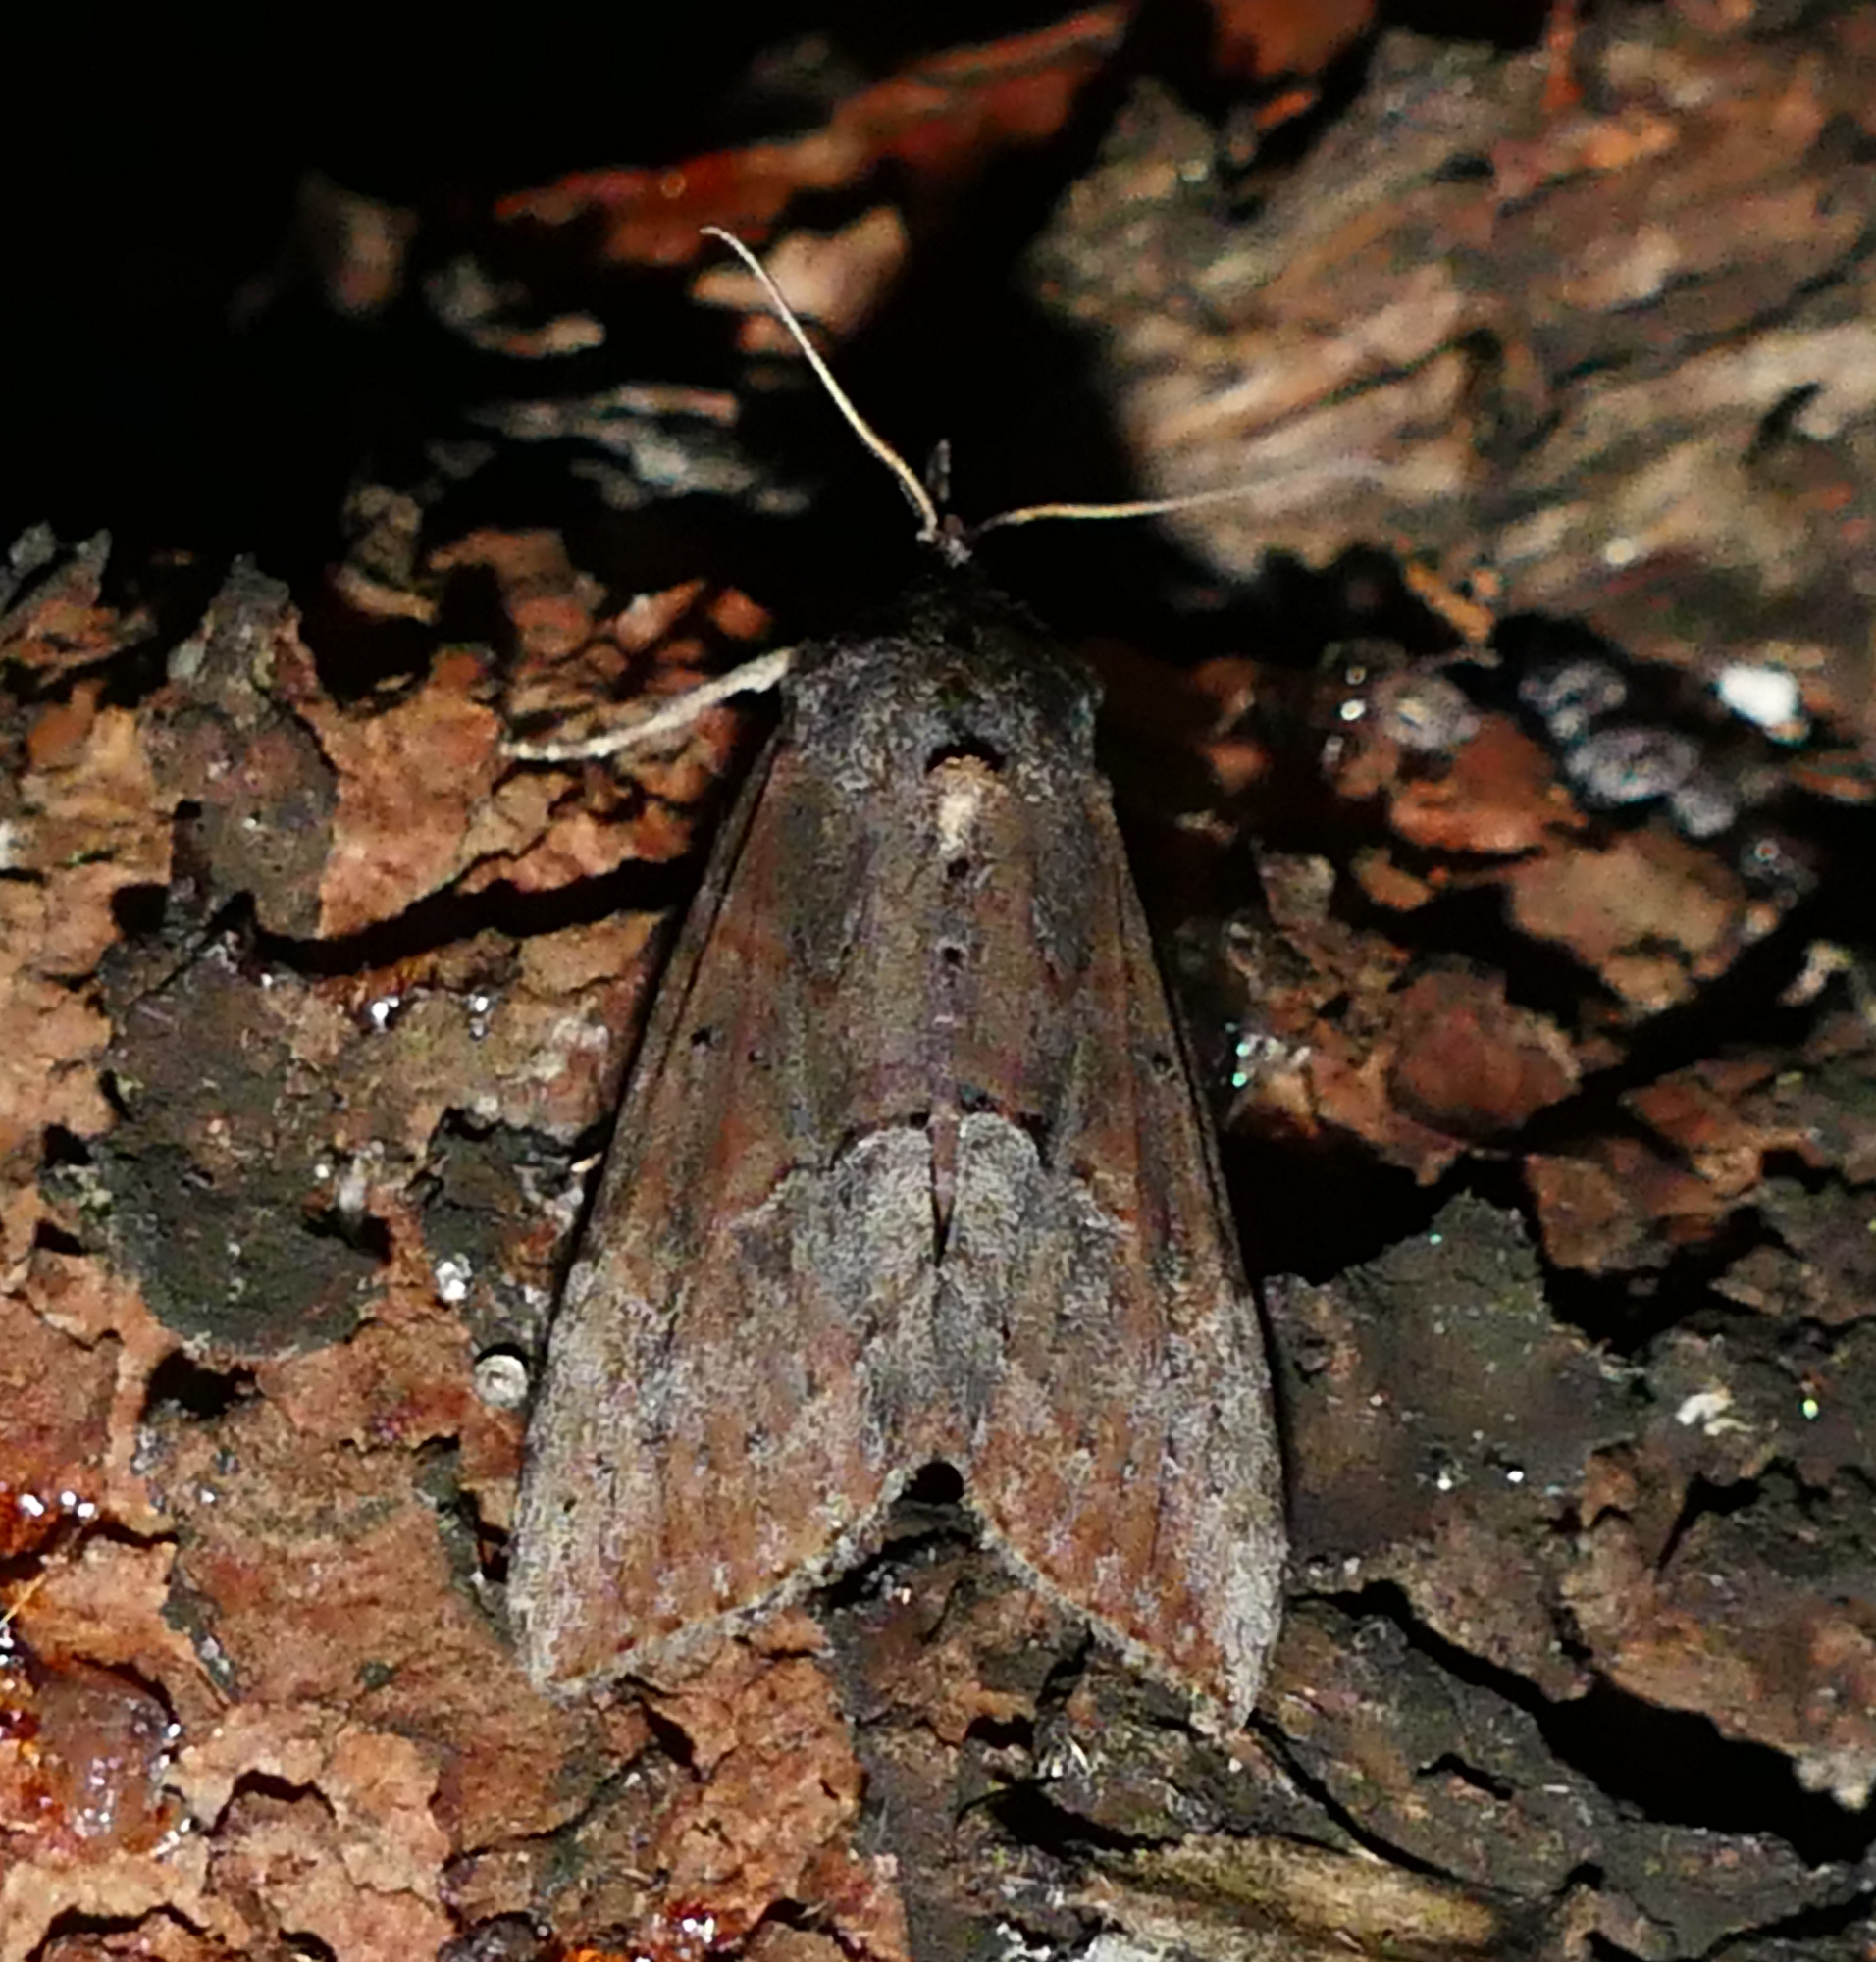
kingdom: Animalia
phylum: Arthropoda
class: Insecta
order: Lepidoptera
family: Erebidae
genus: Hypena
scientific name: Hypena scabra
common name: Green cloverworm
